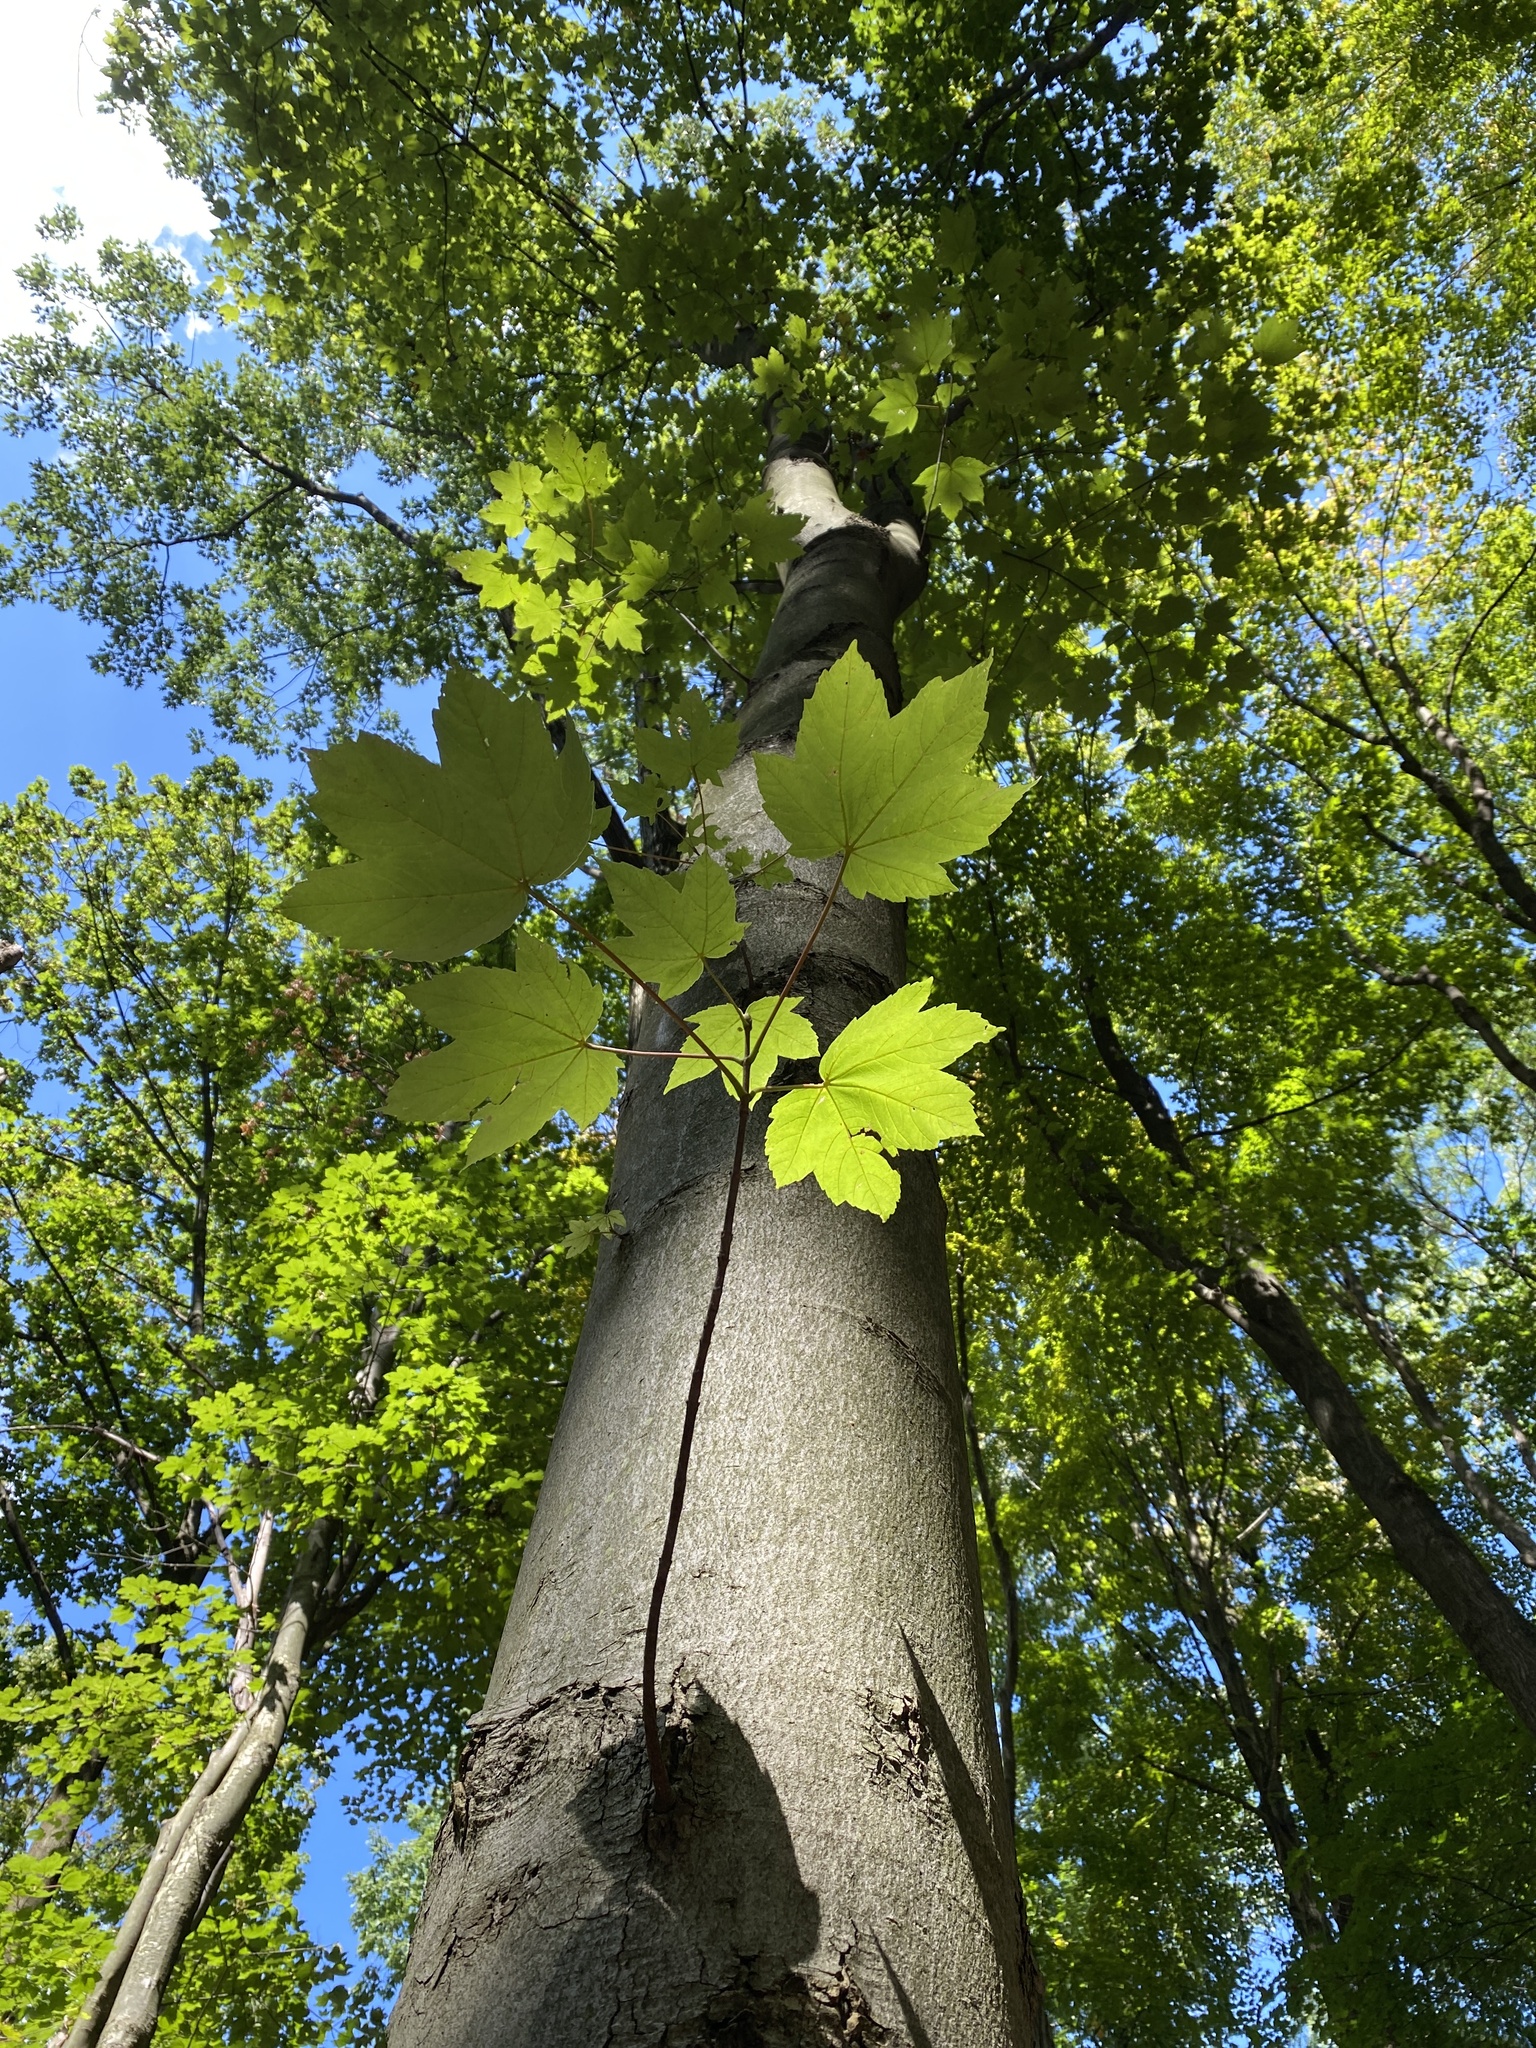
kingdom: Plantae
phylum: Tracheophyta
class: Magnoliopsida
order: Sapindales
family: Sapindaceae
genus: Acer
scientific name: Acer pseudoplatanus
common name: Sycamore
